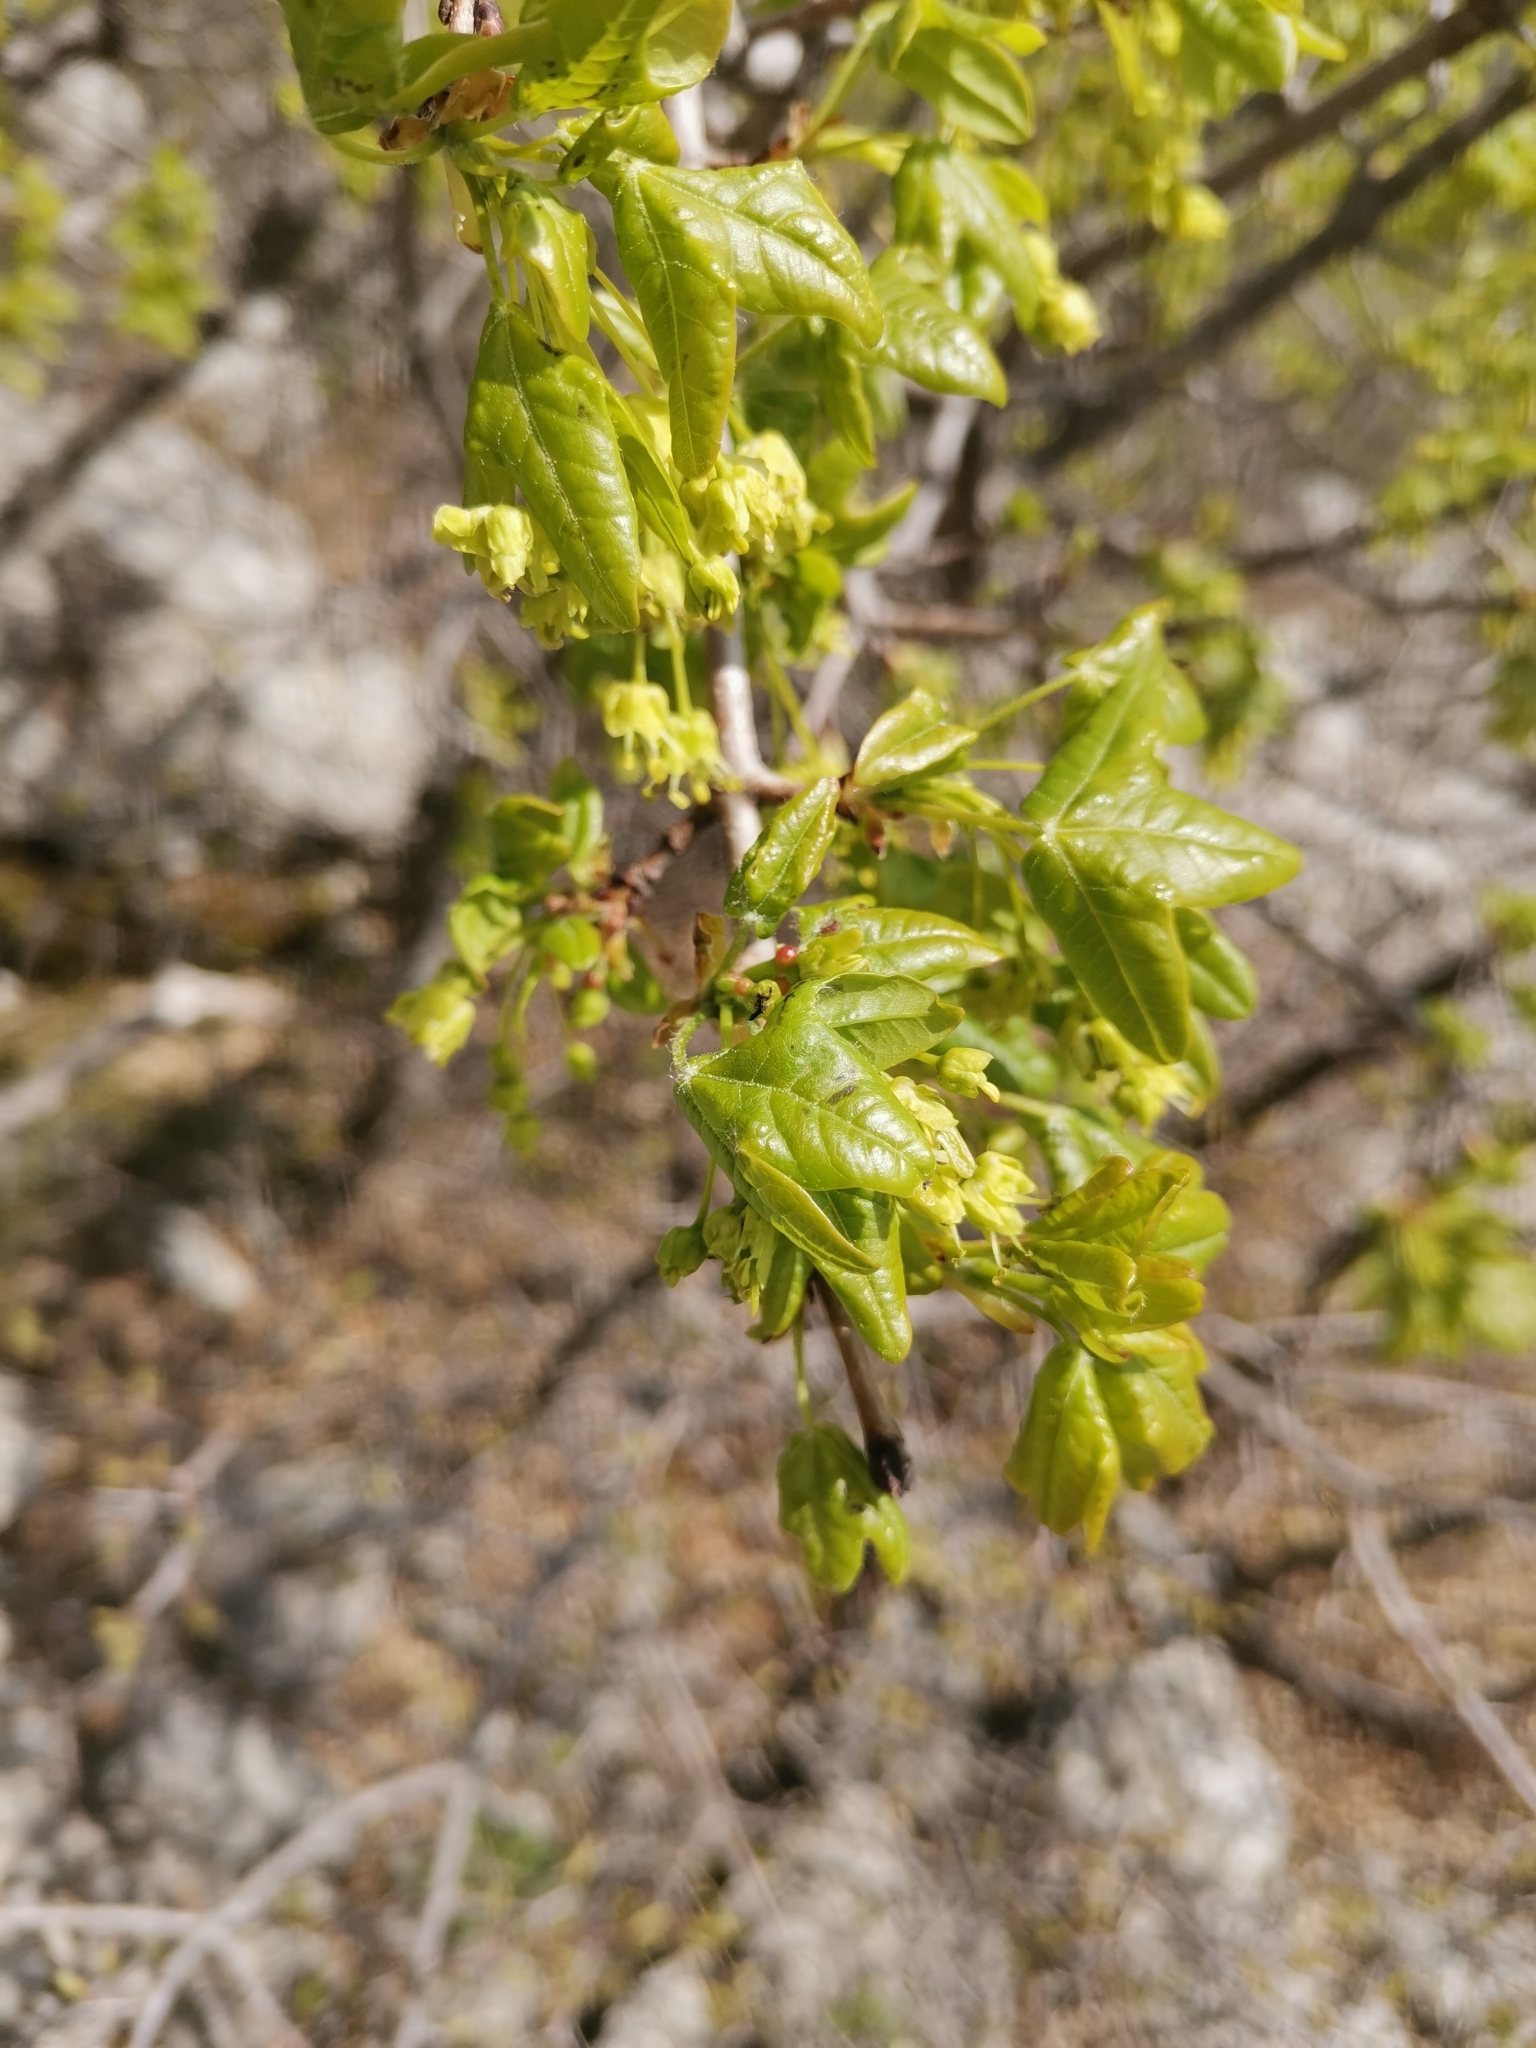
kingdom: Plantae
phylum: Tracheophyta
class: Magnoliopsida
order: Sapindales
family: Sapindaceae
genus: Acer
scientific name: Acer monspessulanum
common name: Montpellier maple
